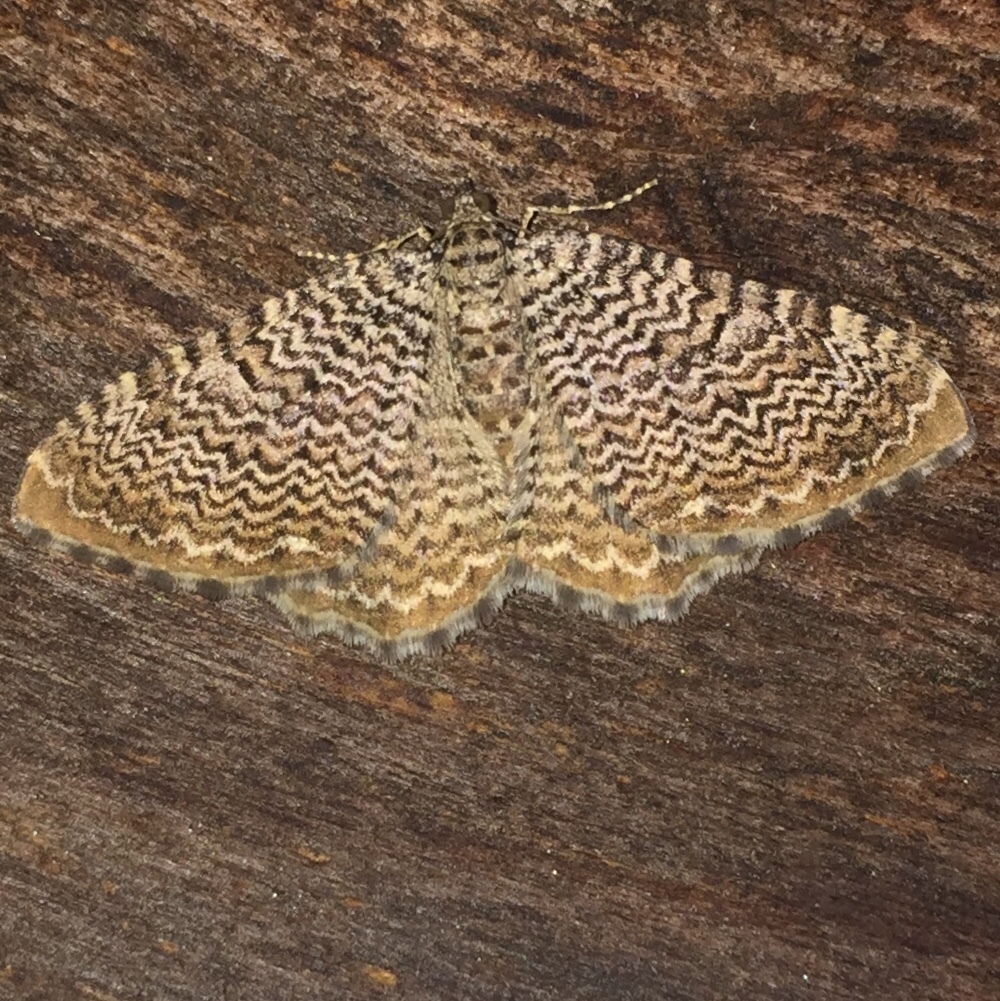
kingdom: Animalia
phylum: Arthropoda
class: Insecta
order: Lepidoptera
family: Geometridae
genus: Rheumaptera
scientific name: Rheumaptera prunivorata
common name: Cherry scallop shell moth
